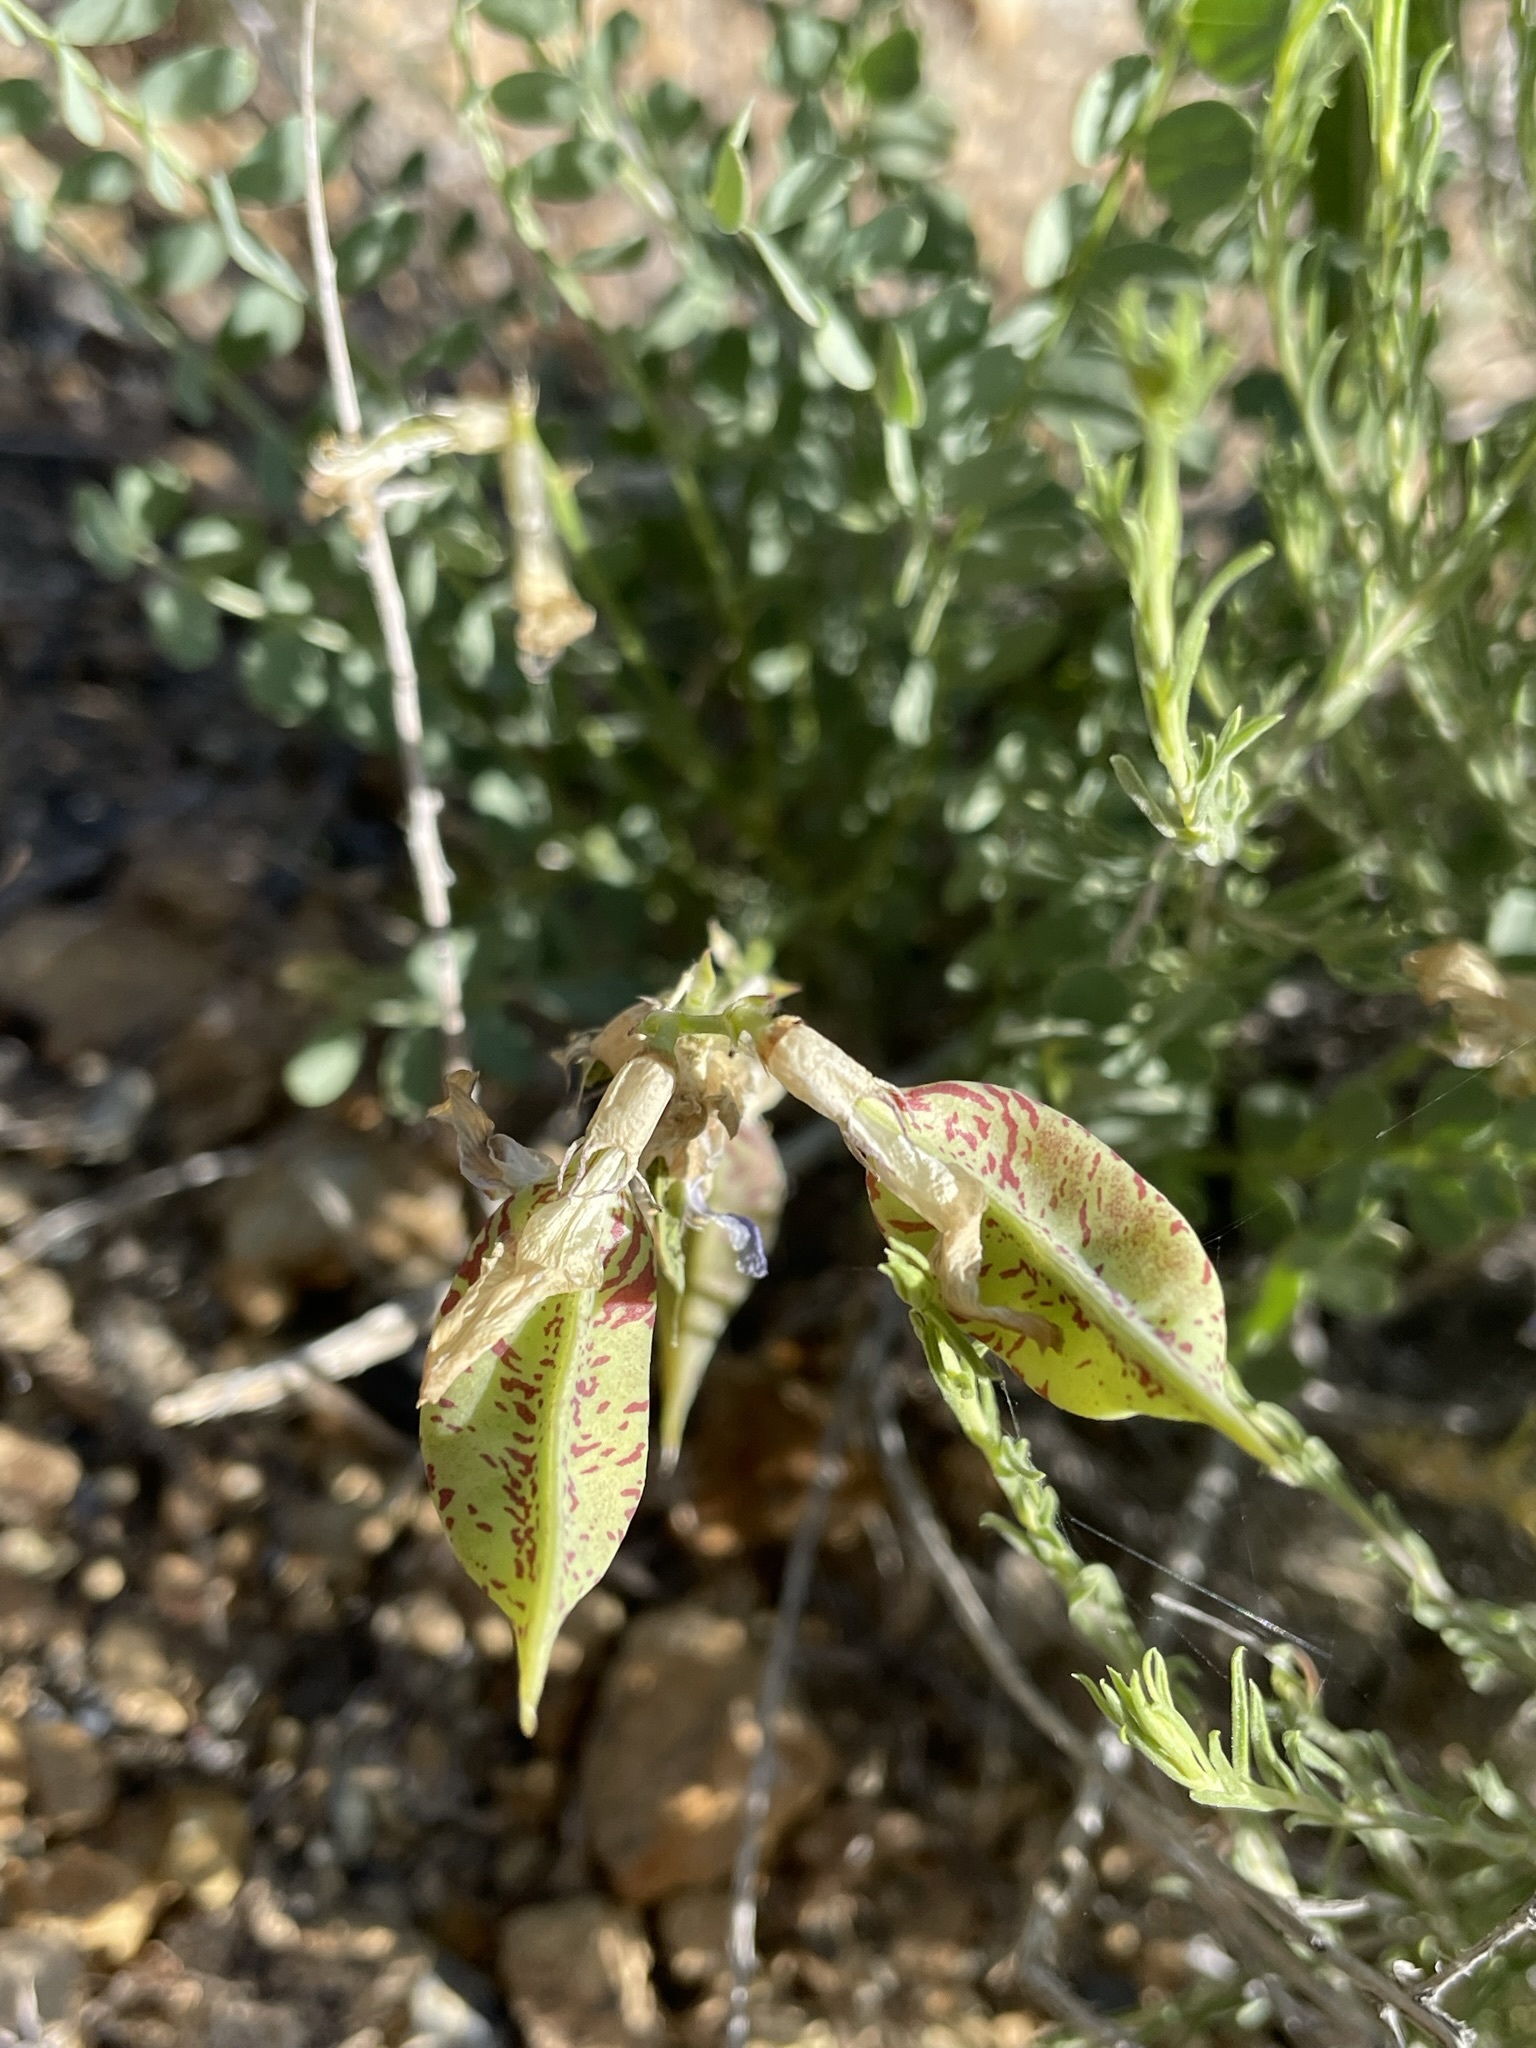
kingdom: Plantae
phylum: Tracheophyta
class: Magnoliopsida
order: Fabales
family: Fabaceae
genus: Astragalus
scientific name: Astragalus beckwithii
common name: Beckwith's milk-vetch
